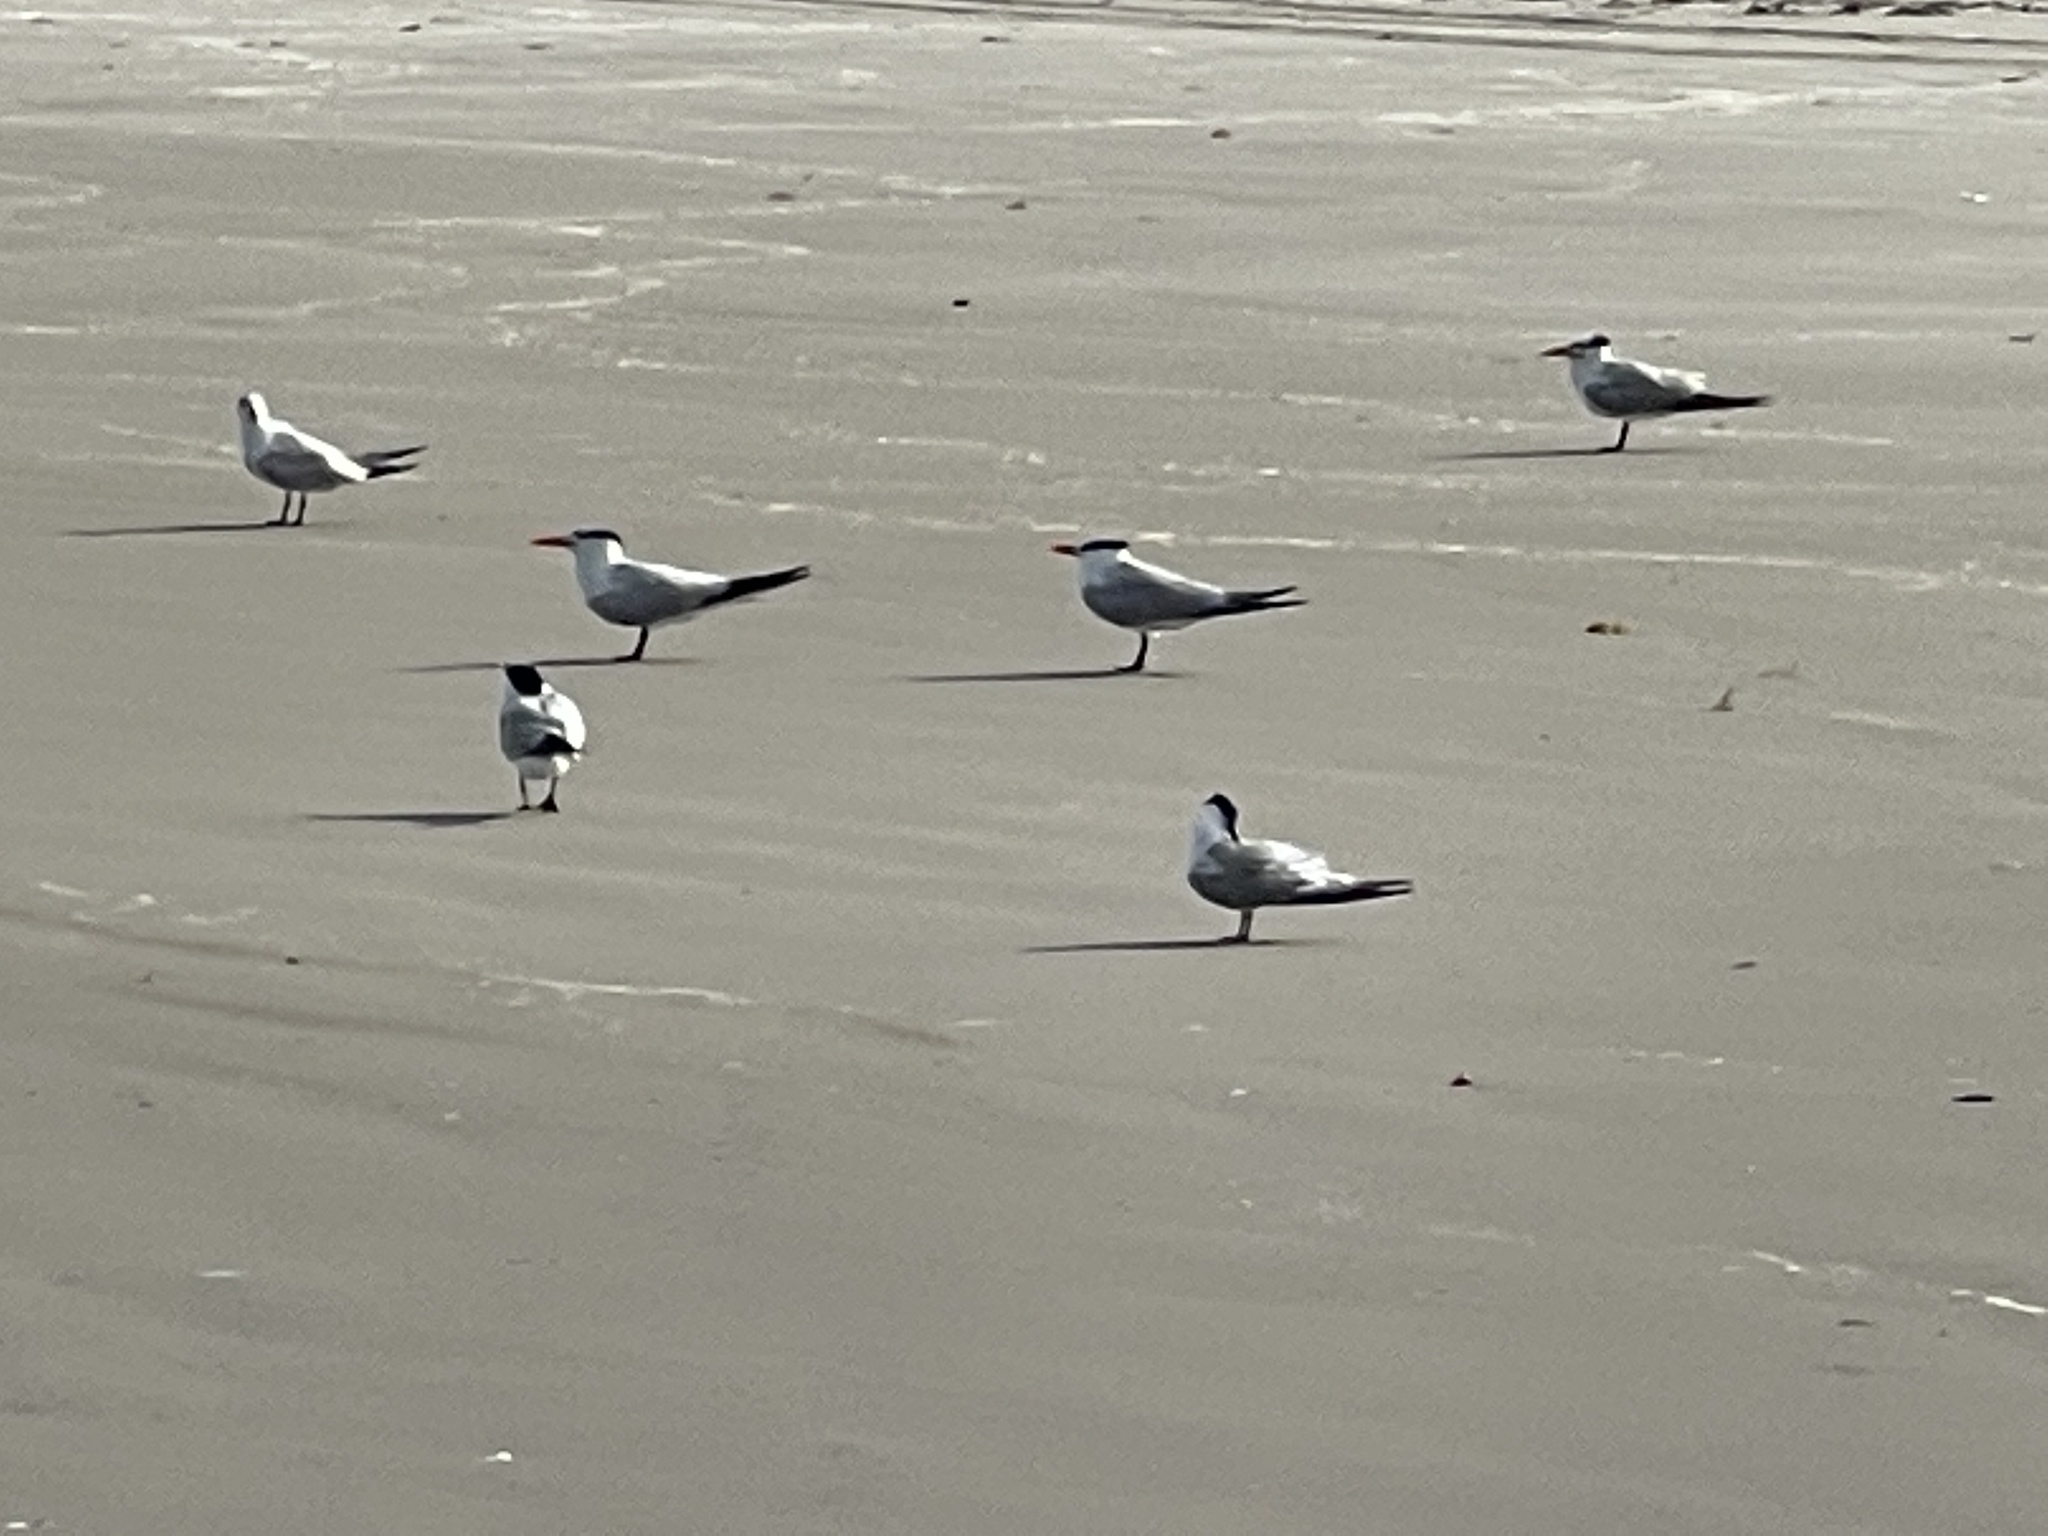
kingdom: Animalia
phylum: Chordata
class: Aves
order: Charadriiformes
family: Laridae
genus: Thalasseus
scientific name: Thalasseus maximus
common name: Royal tern
